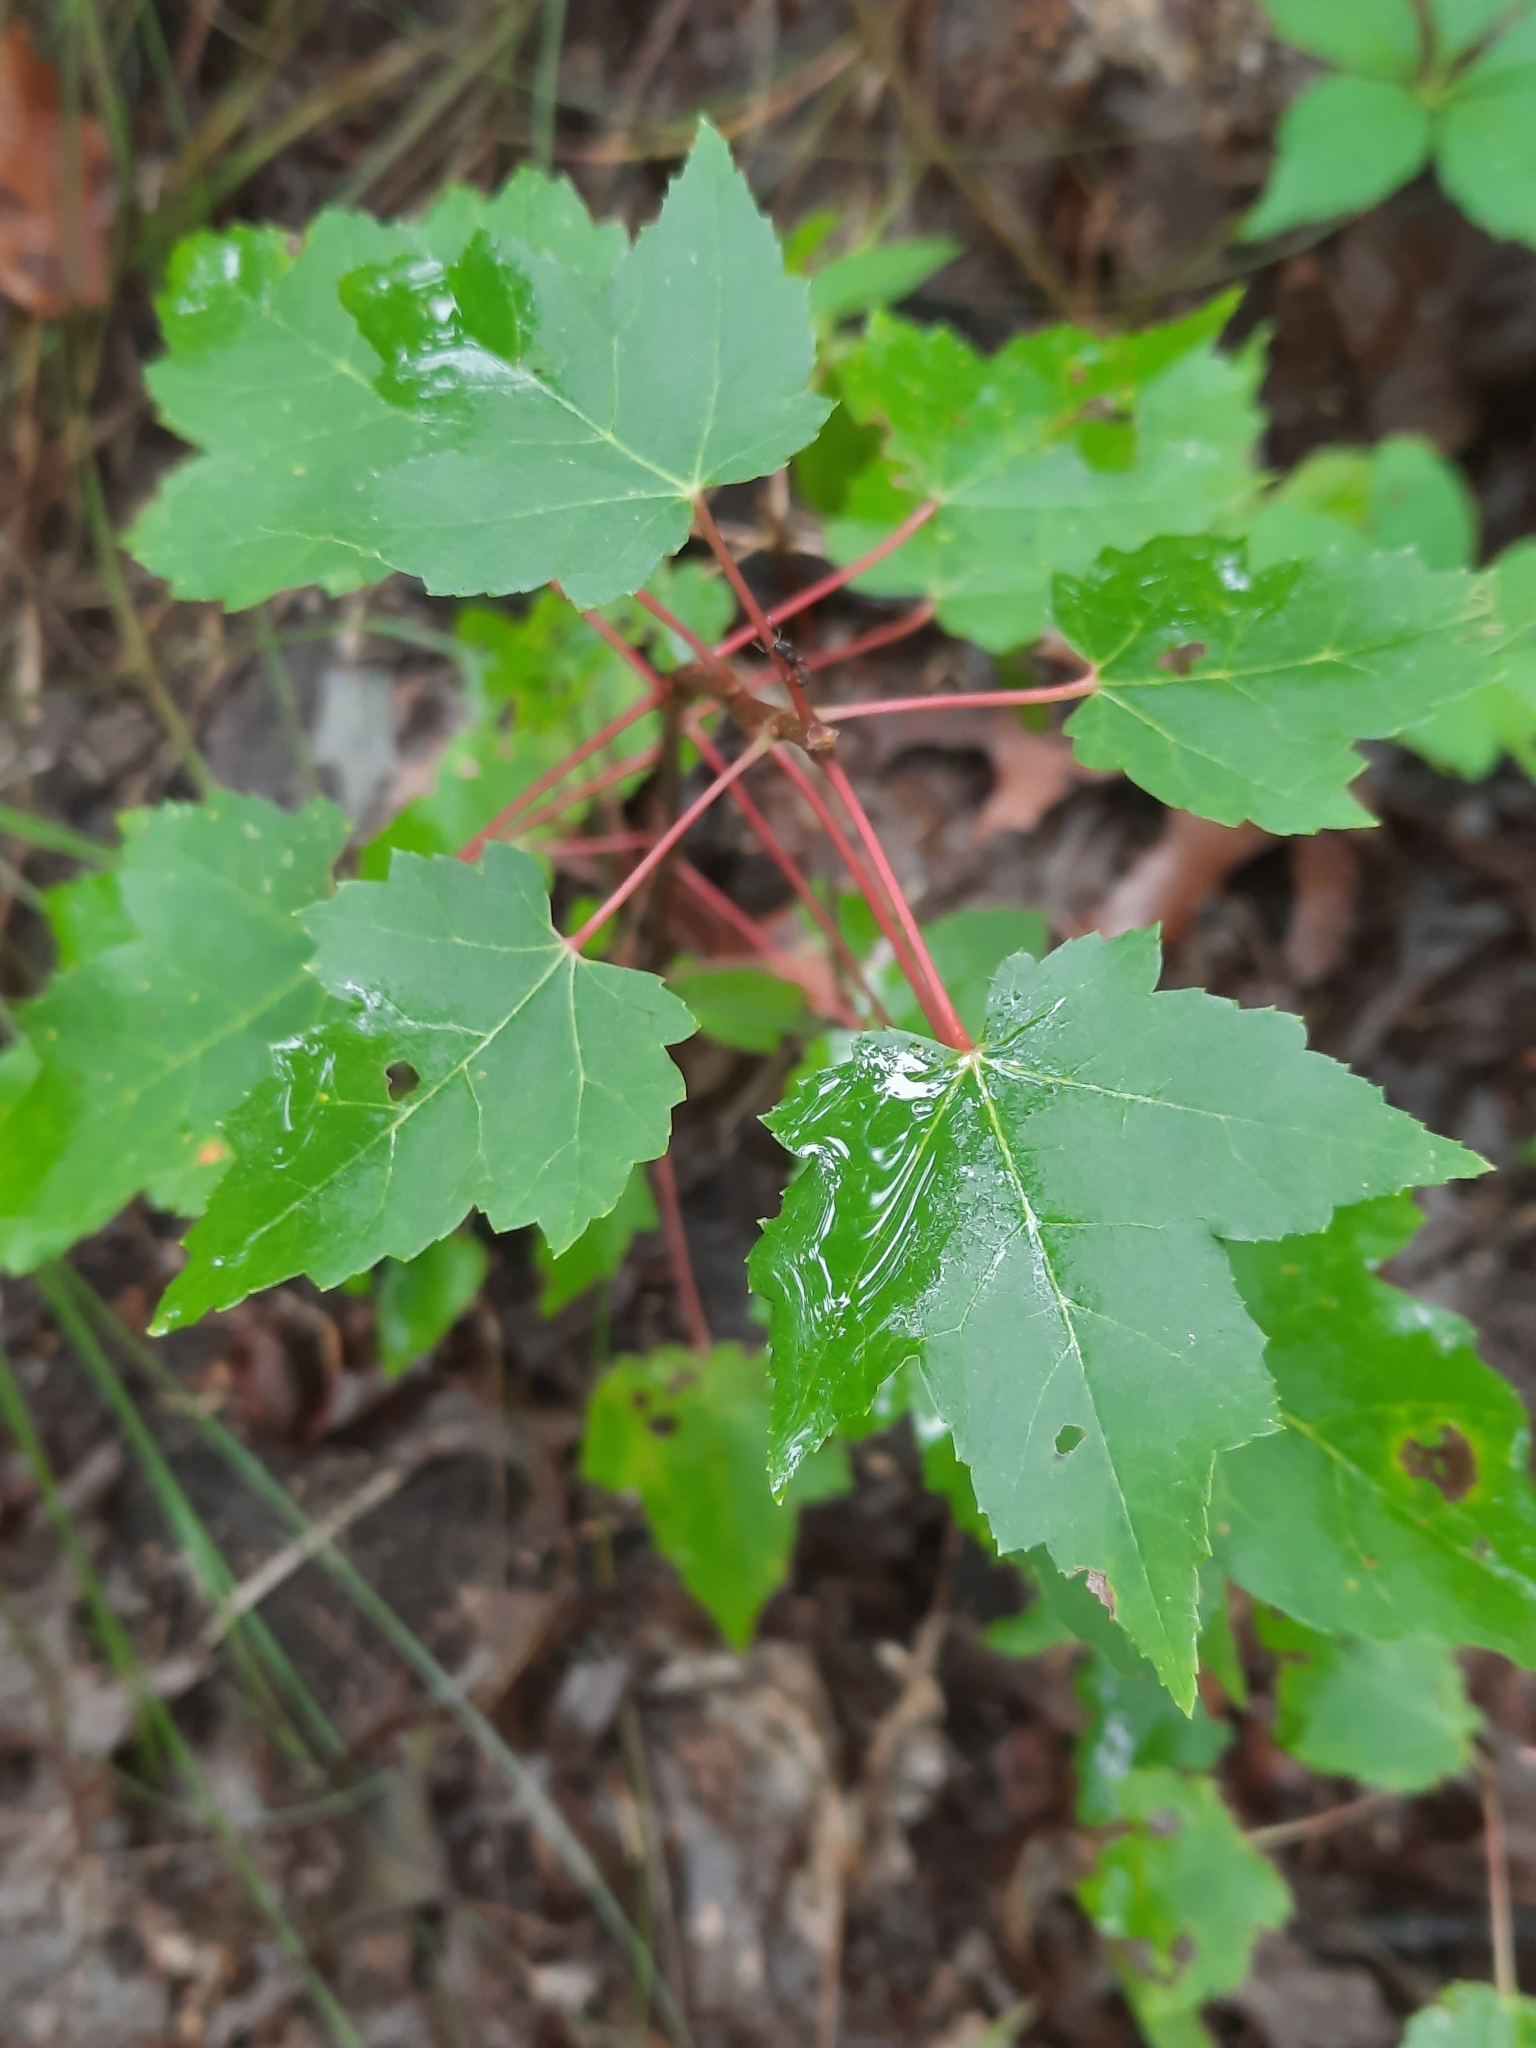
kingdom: Plantae
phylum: Tracheophyta
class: Magnoliopsida
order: Sapindales
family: Sapindaceae
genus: Acer
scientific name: Acer rubrum
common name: Red maple
